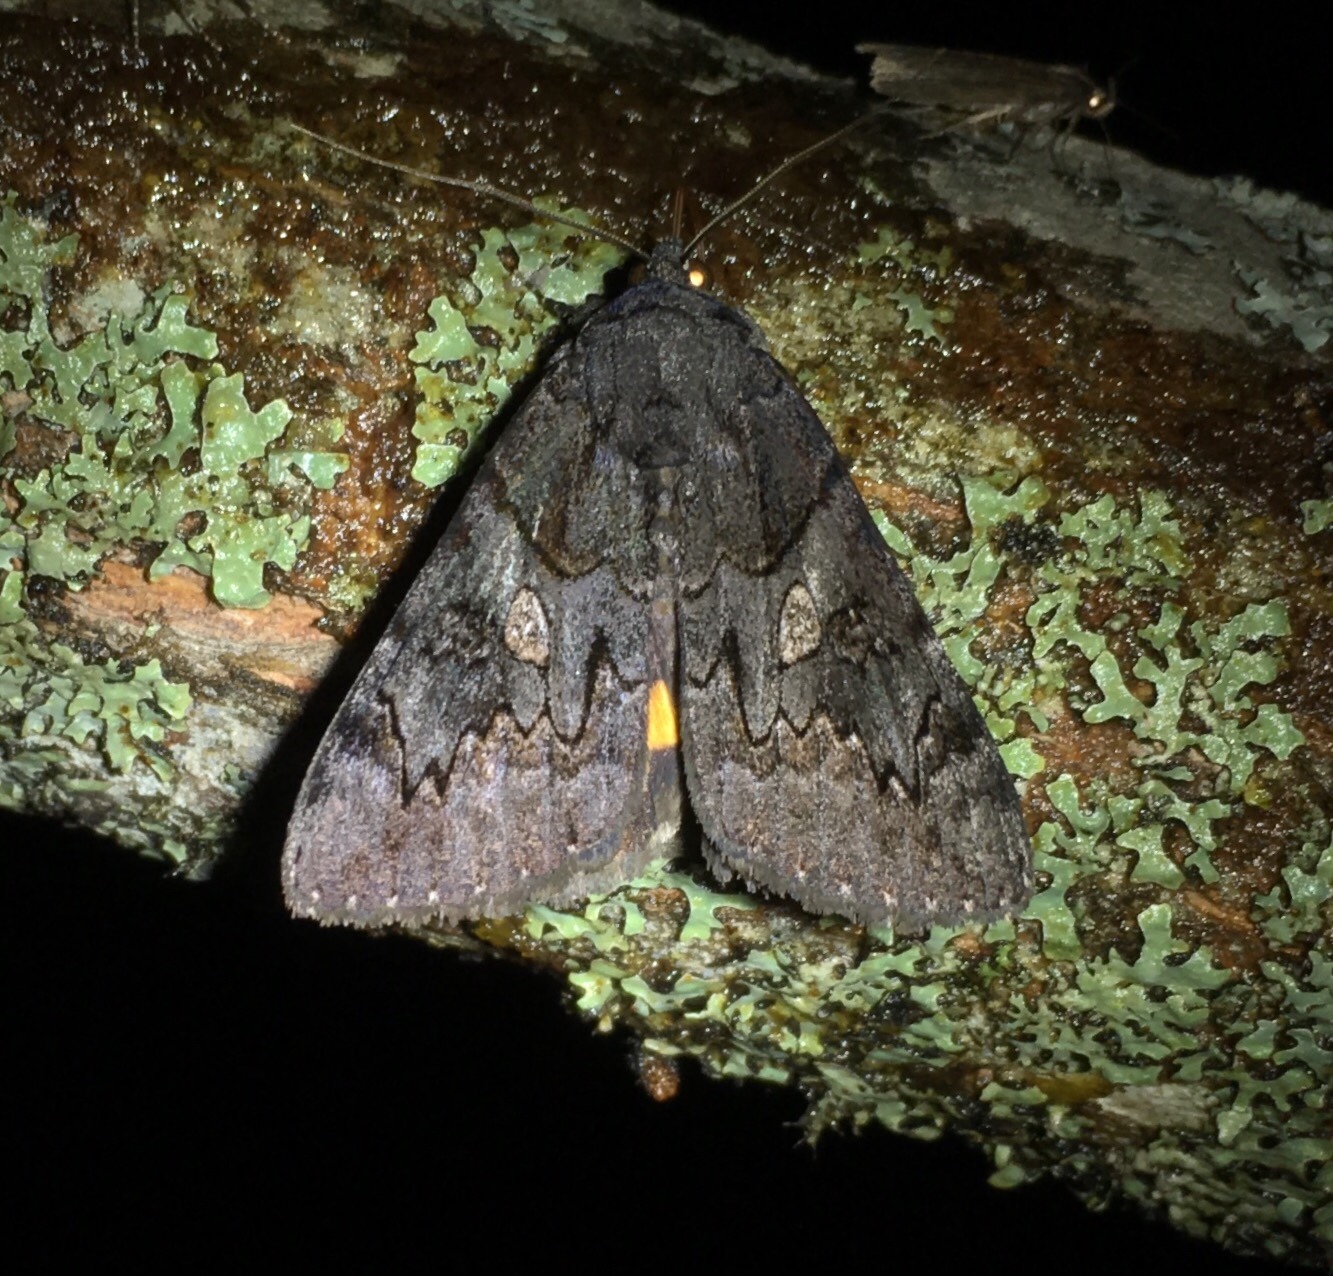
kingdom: Animalia
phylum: Arthropoda
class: Insecta
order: Lepidoptera
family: Erebidae
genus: Catocala
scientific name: Catocala antinympha
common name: Sweetfern underwing
